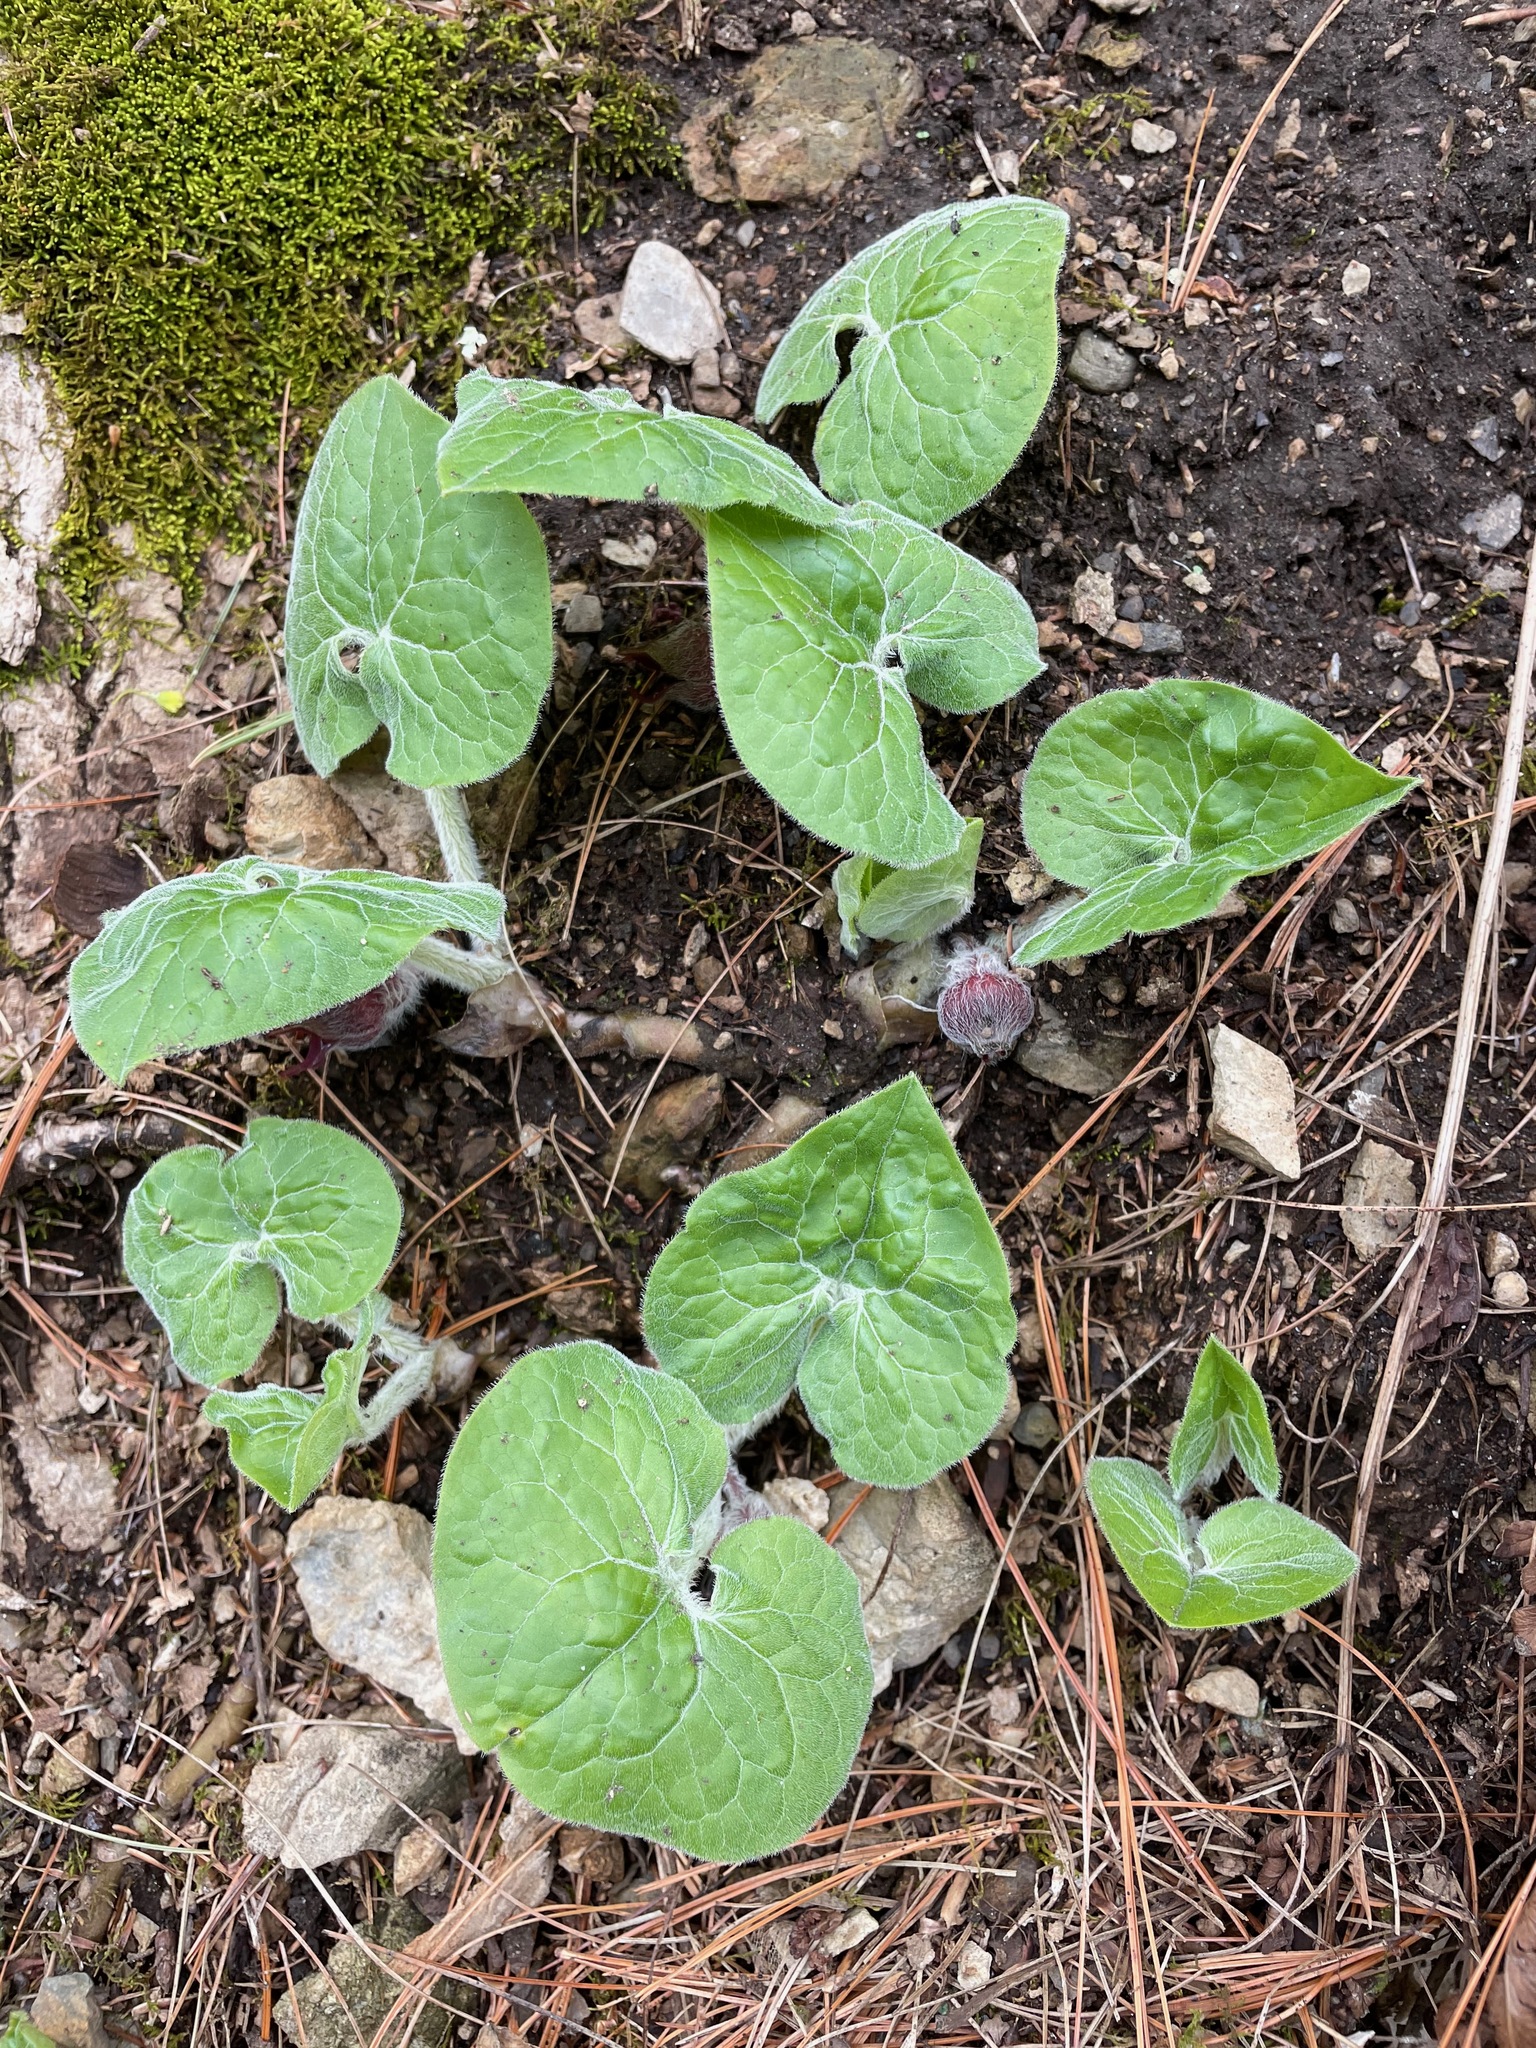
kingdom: Plantae
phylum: Tracheophyta
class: Magnoliopsida
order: Piperales
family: Aristolochiaceae
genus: Asarum
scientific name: Asarum canadense
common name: Wild ginger
